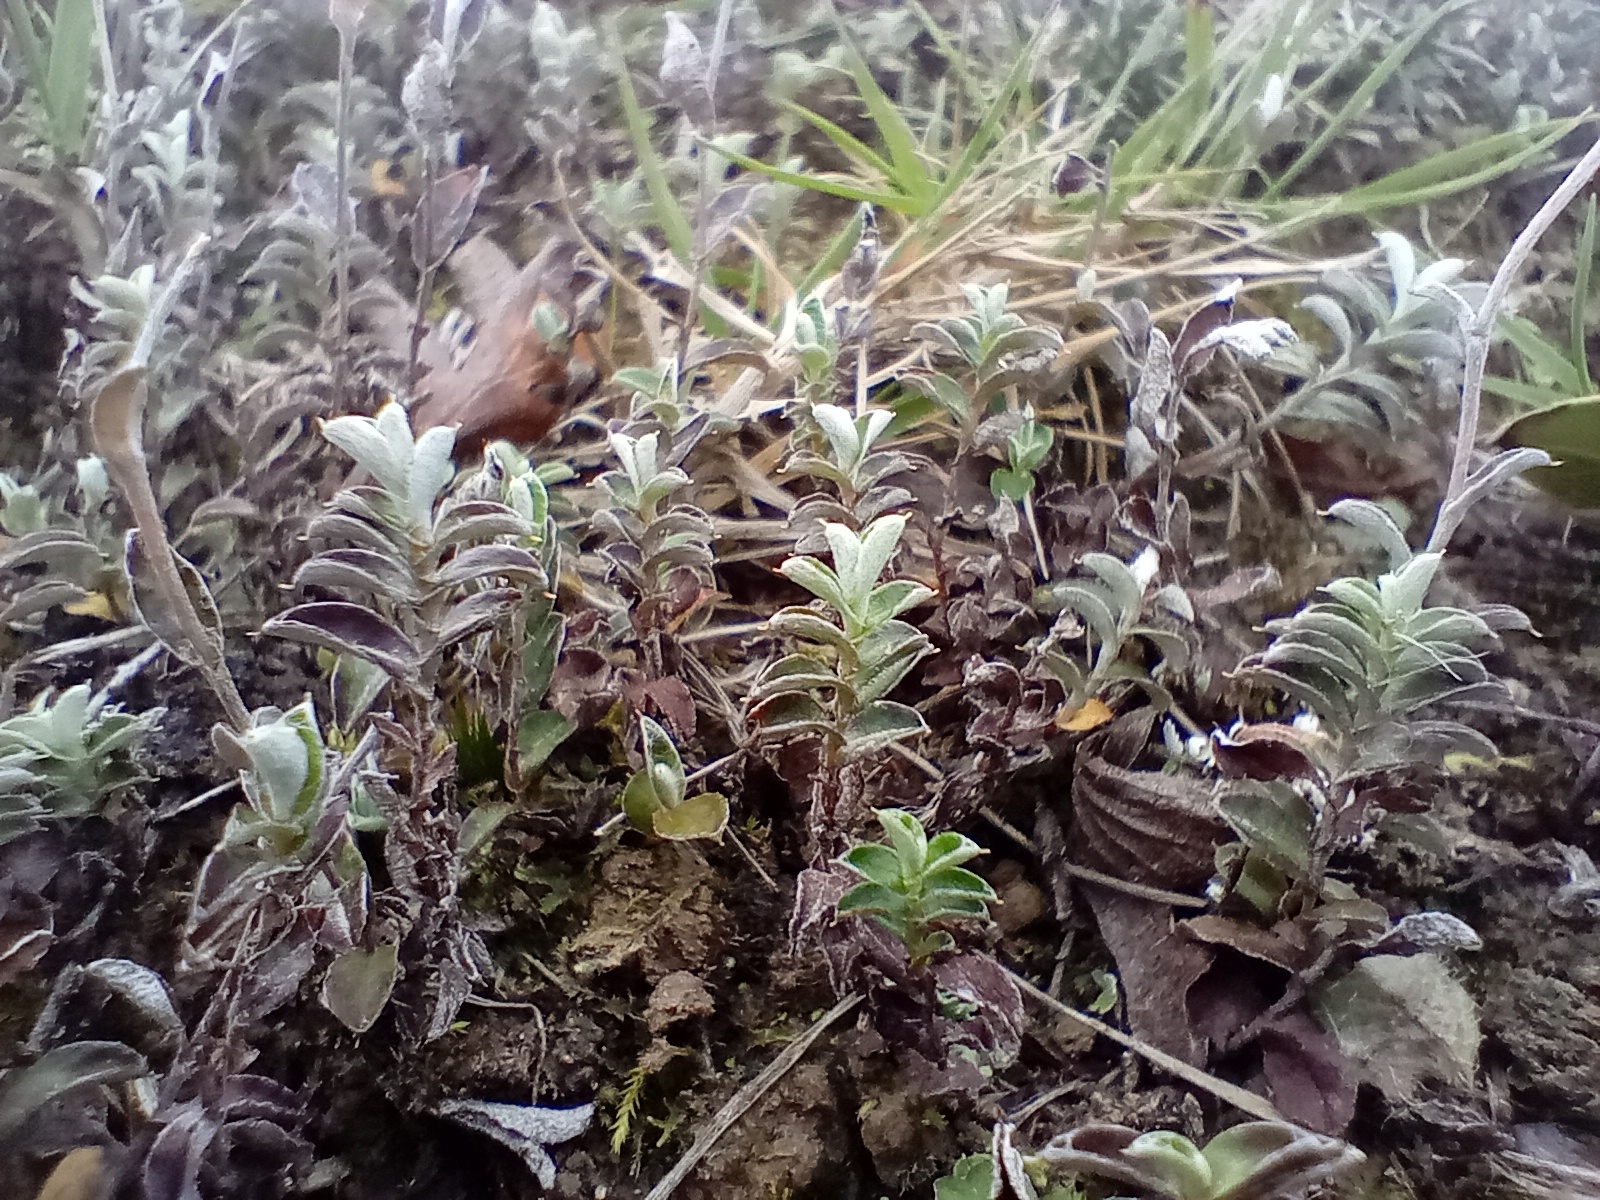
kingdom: Plantae
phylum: Tracheophyta
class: Magnoliopsida
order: Asterales
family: Asteraceae
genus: Helichrysum
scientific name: Helichrysum filicaule
